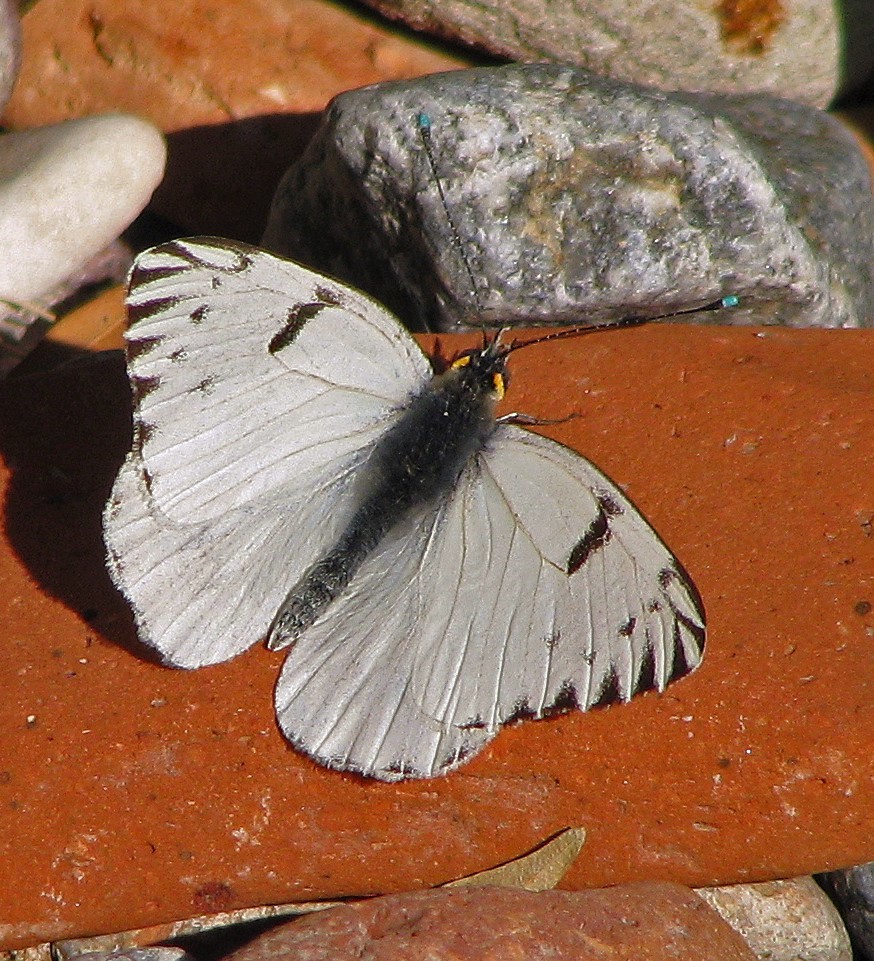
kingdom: Animalia
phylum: Arthropoda
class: Insecta
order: Lepidoptera
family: Pieridae
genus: Tatochila
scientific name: Tatochila autodice
